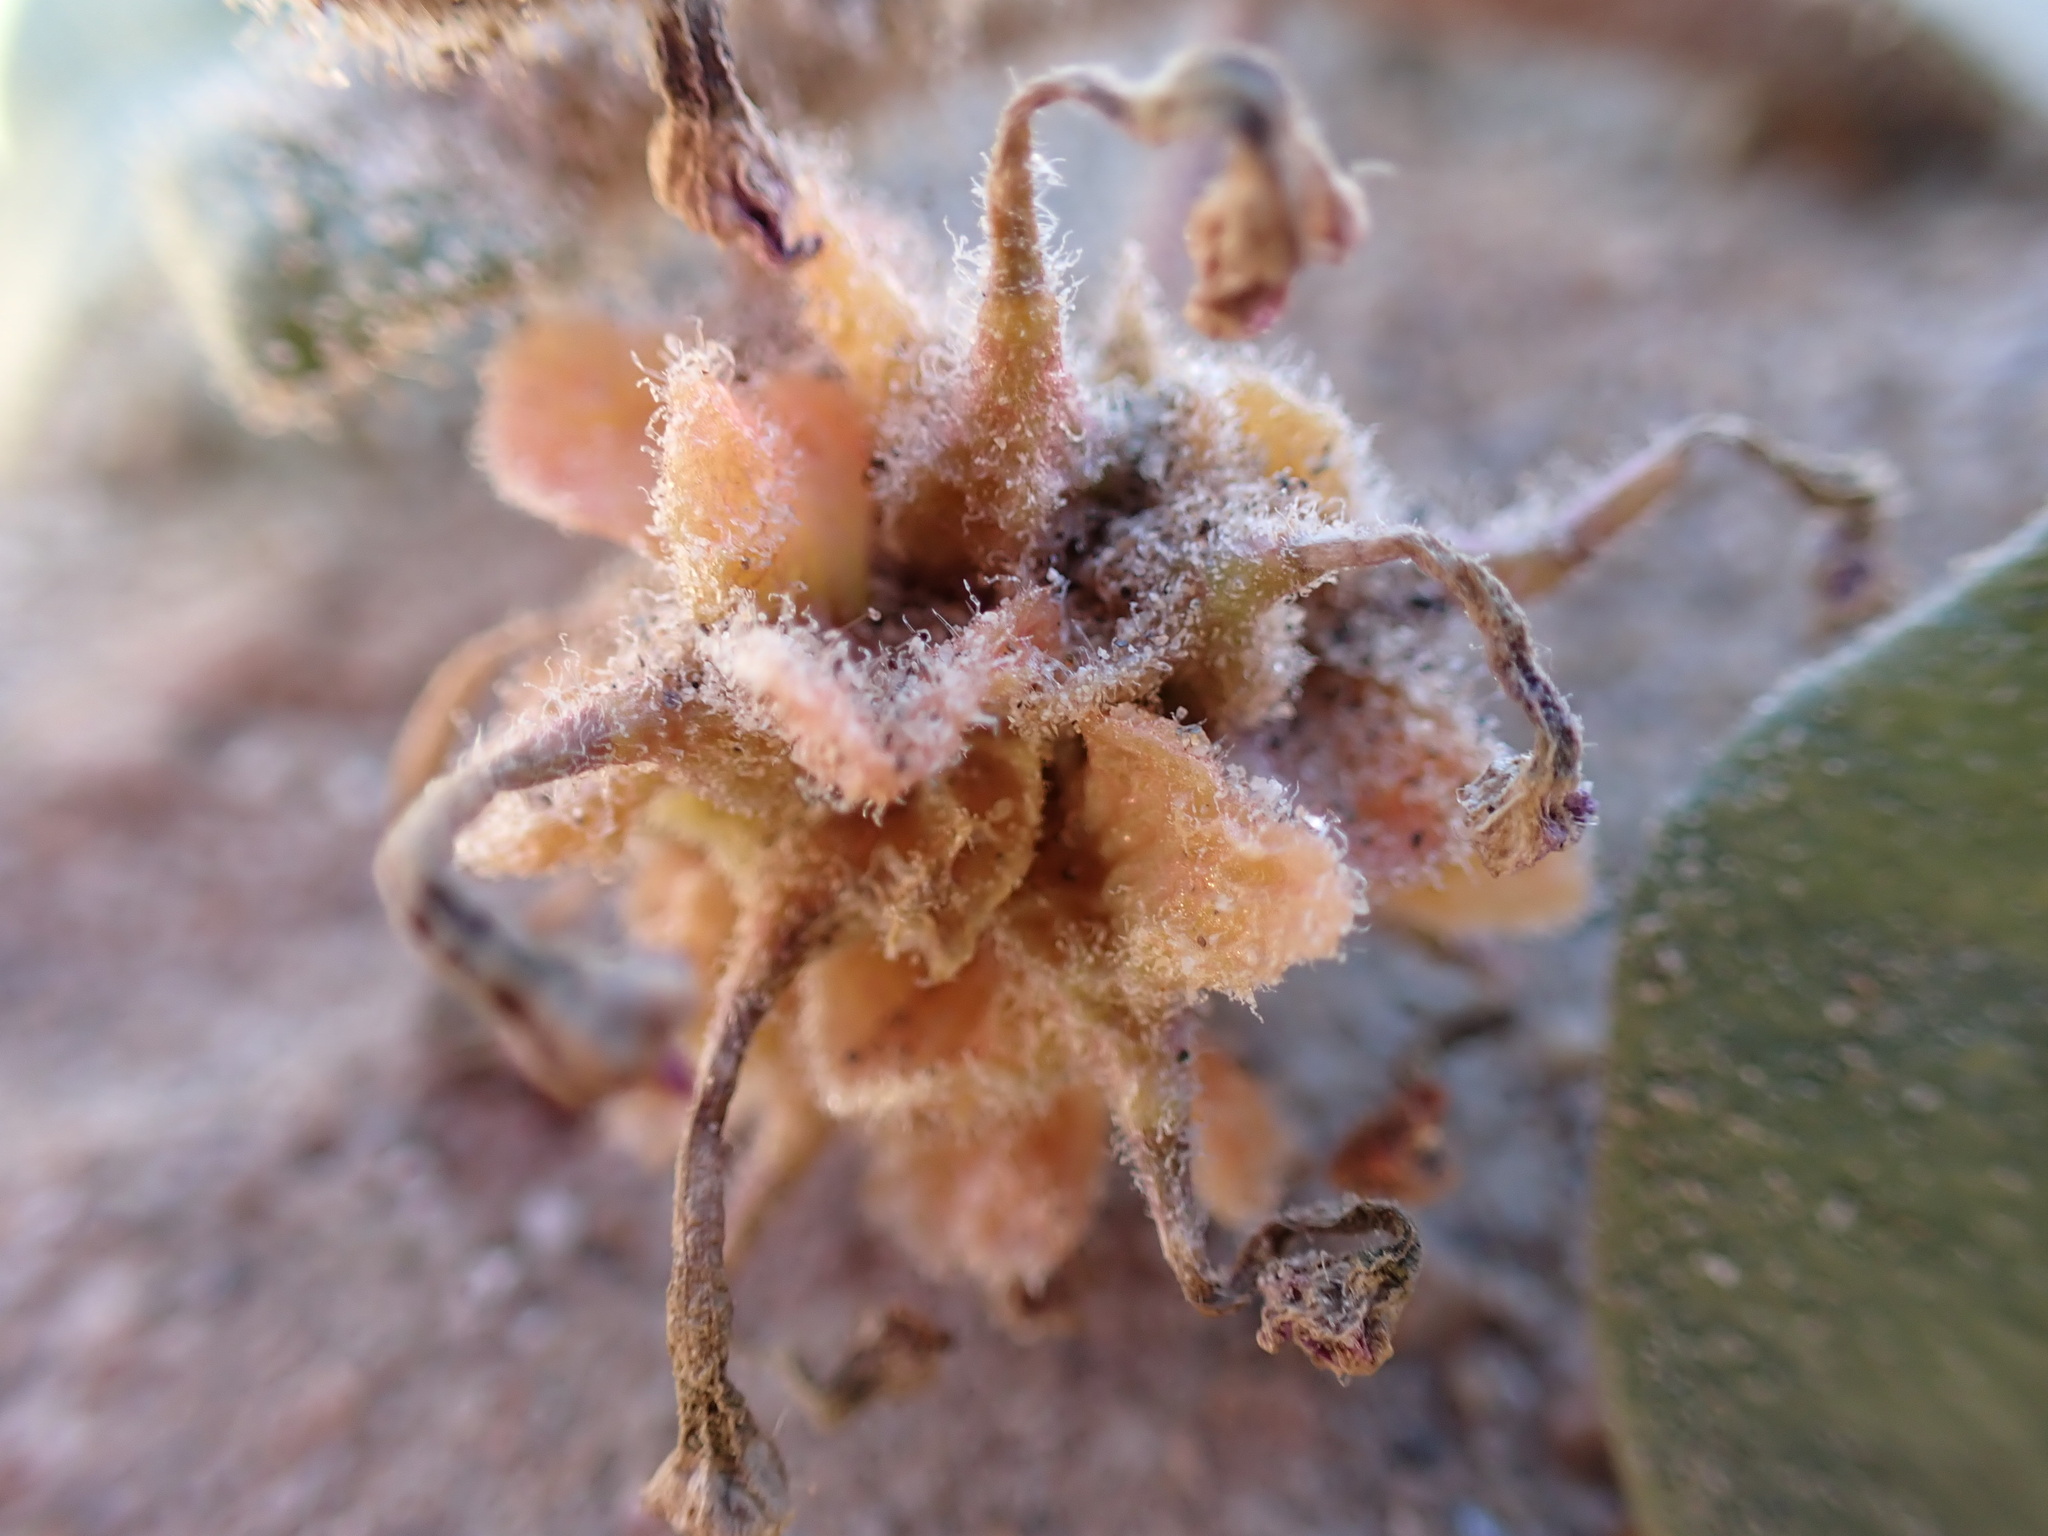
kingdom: Plantae
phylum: Tracheophyta
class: Magnoliopsida
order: Caryophyllales
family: Nyctaginaceae
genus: Abronia
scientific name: Abronia villosa
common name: Desert sand-verbena
